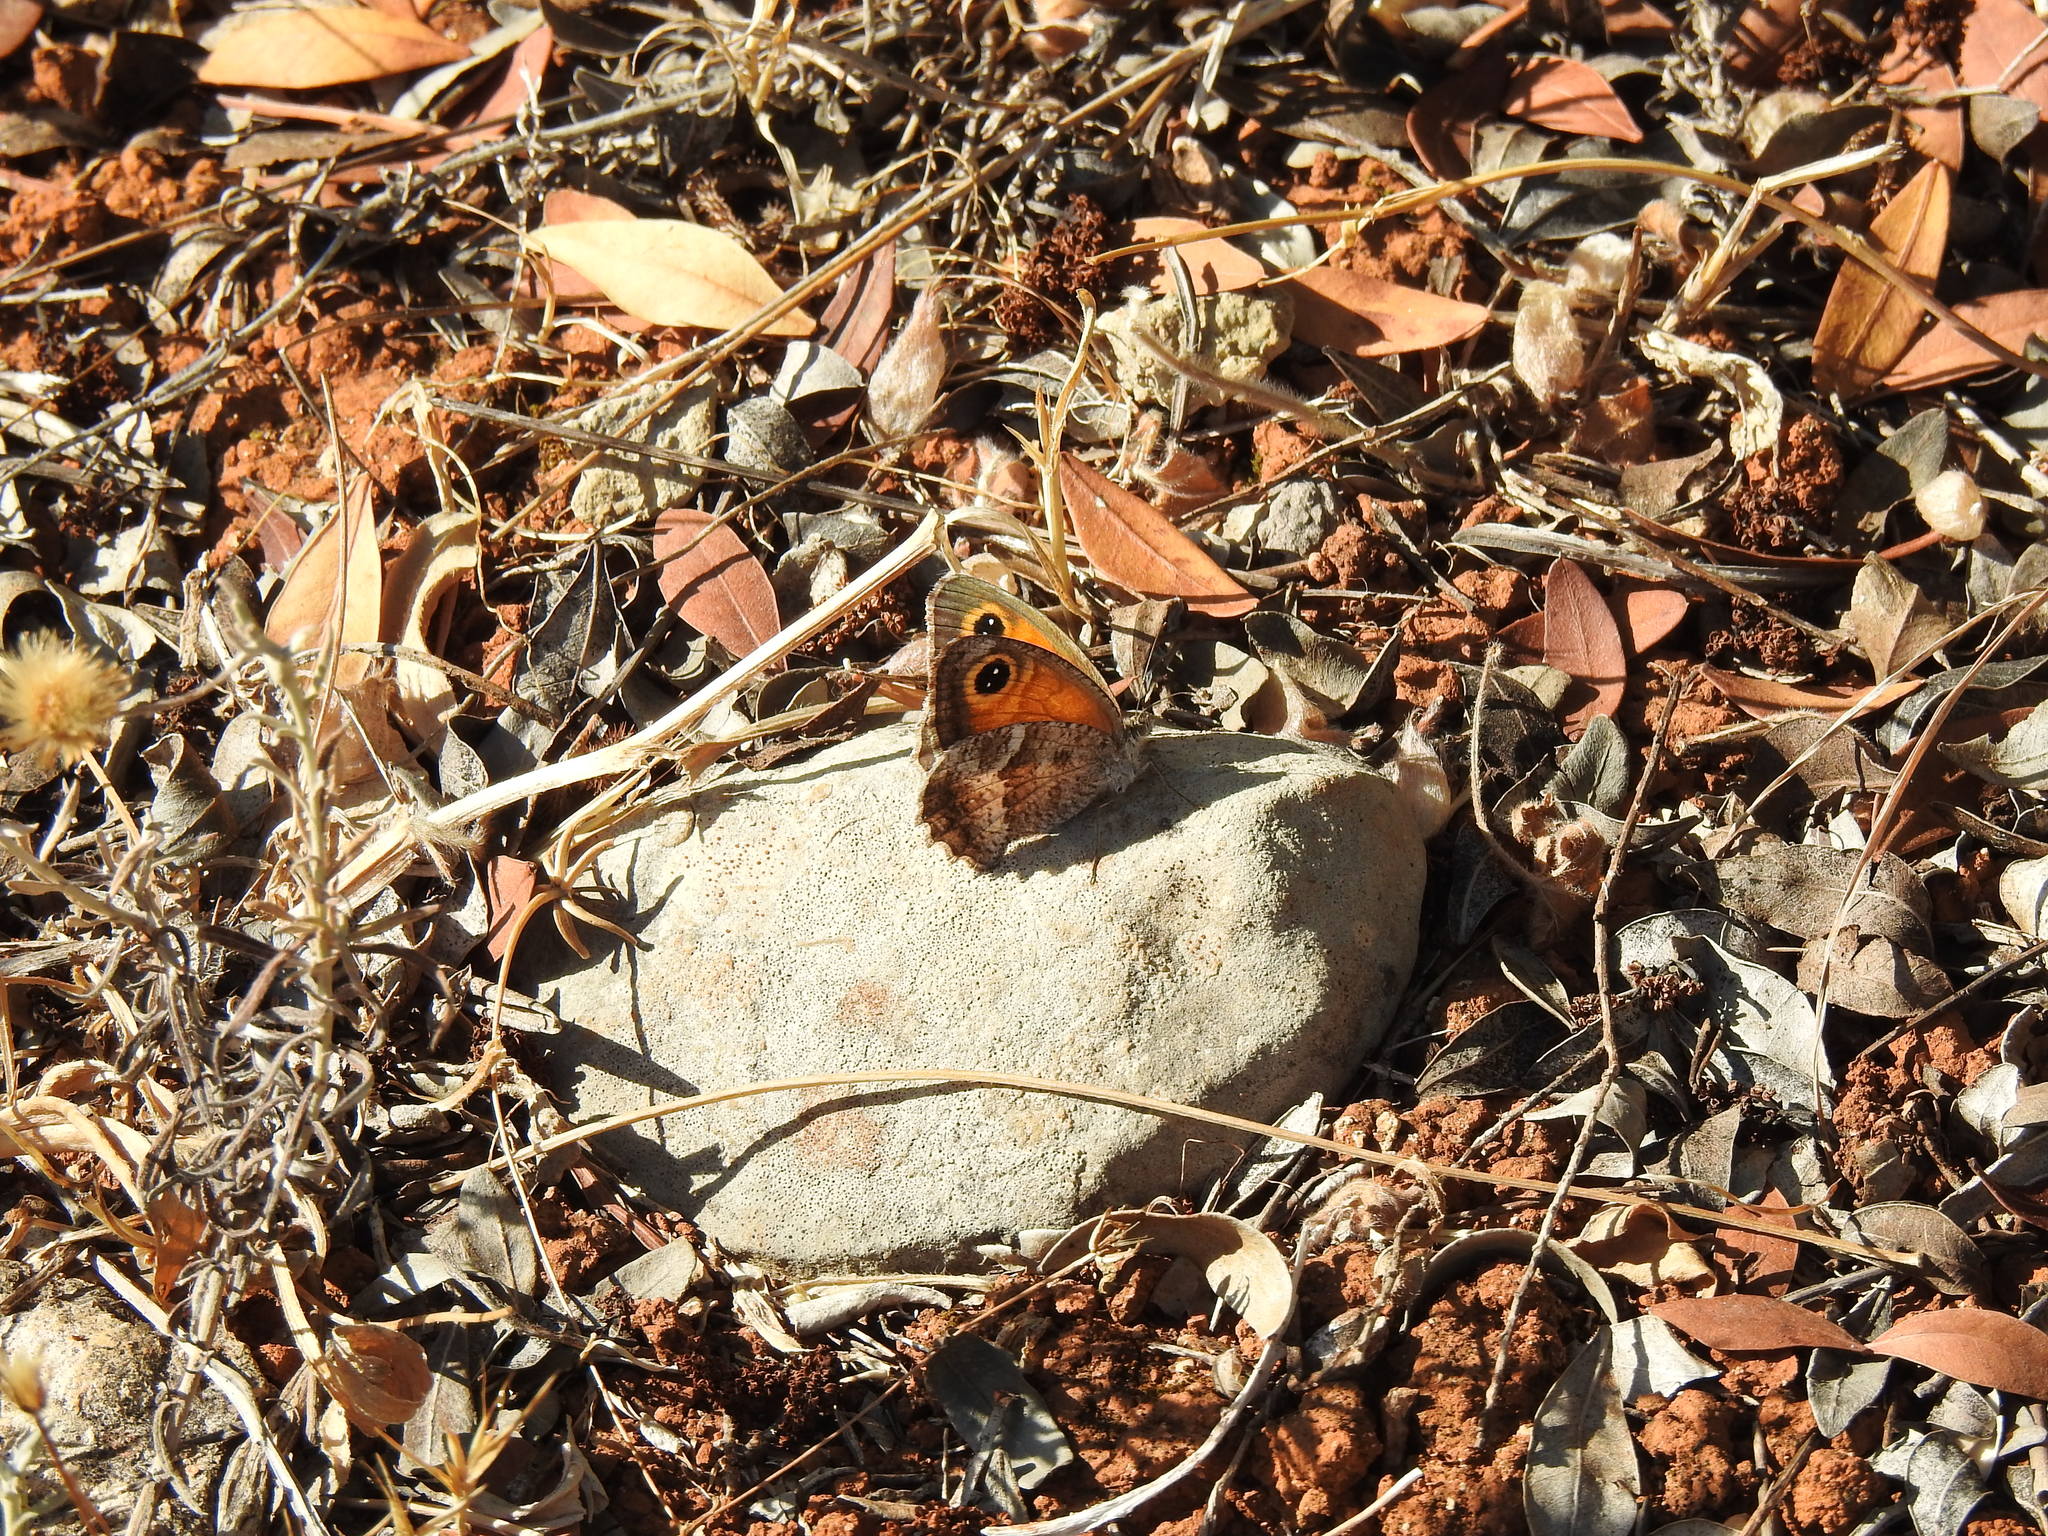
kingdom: Animalia
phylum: Arthropoda
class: Insecta
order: Lepidoptera
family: Nymphalidae
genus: Pyronia
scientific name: Pyronia cecilia
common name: Southern gatekeeper
